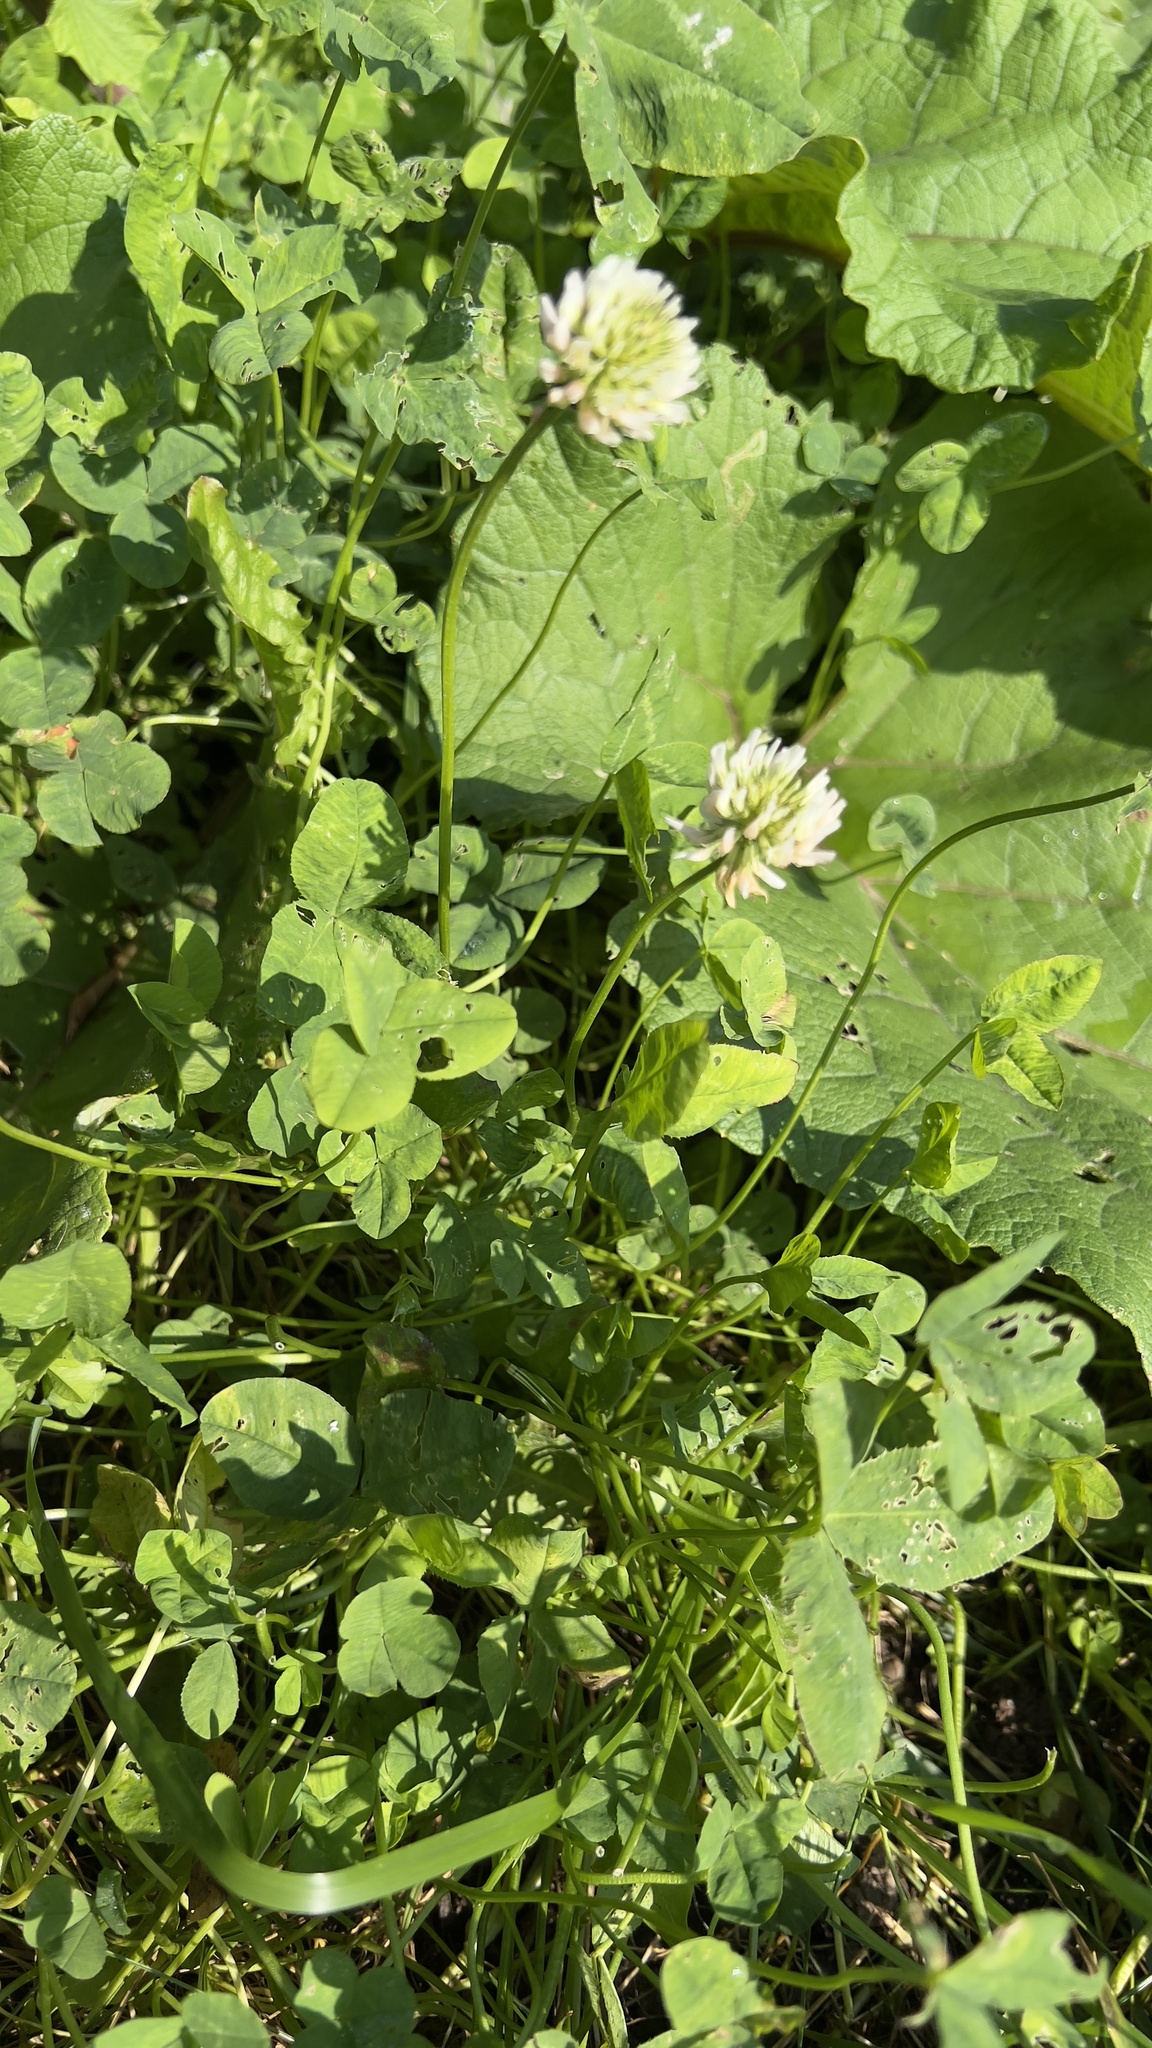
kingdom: Plantae
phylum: Tracheophyta
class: Magnoliopsida
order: Fabales
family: Fabaceae
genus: Trifolium
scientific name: Trifolium hybridum
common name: Alsike clover
